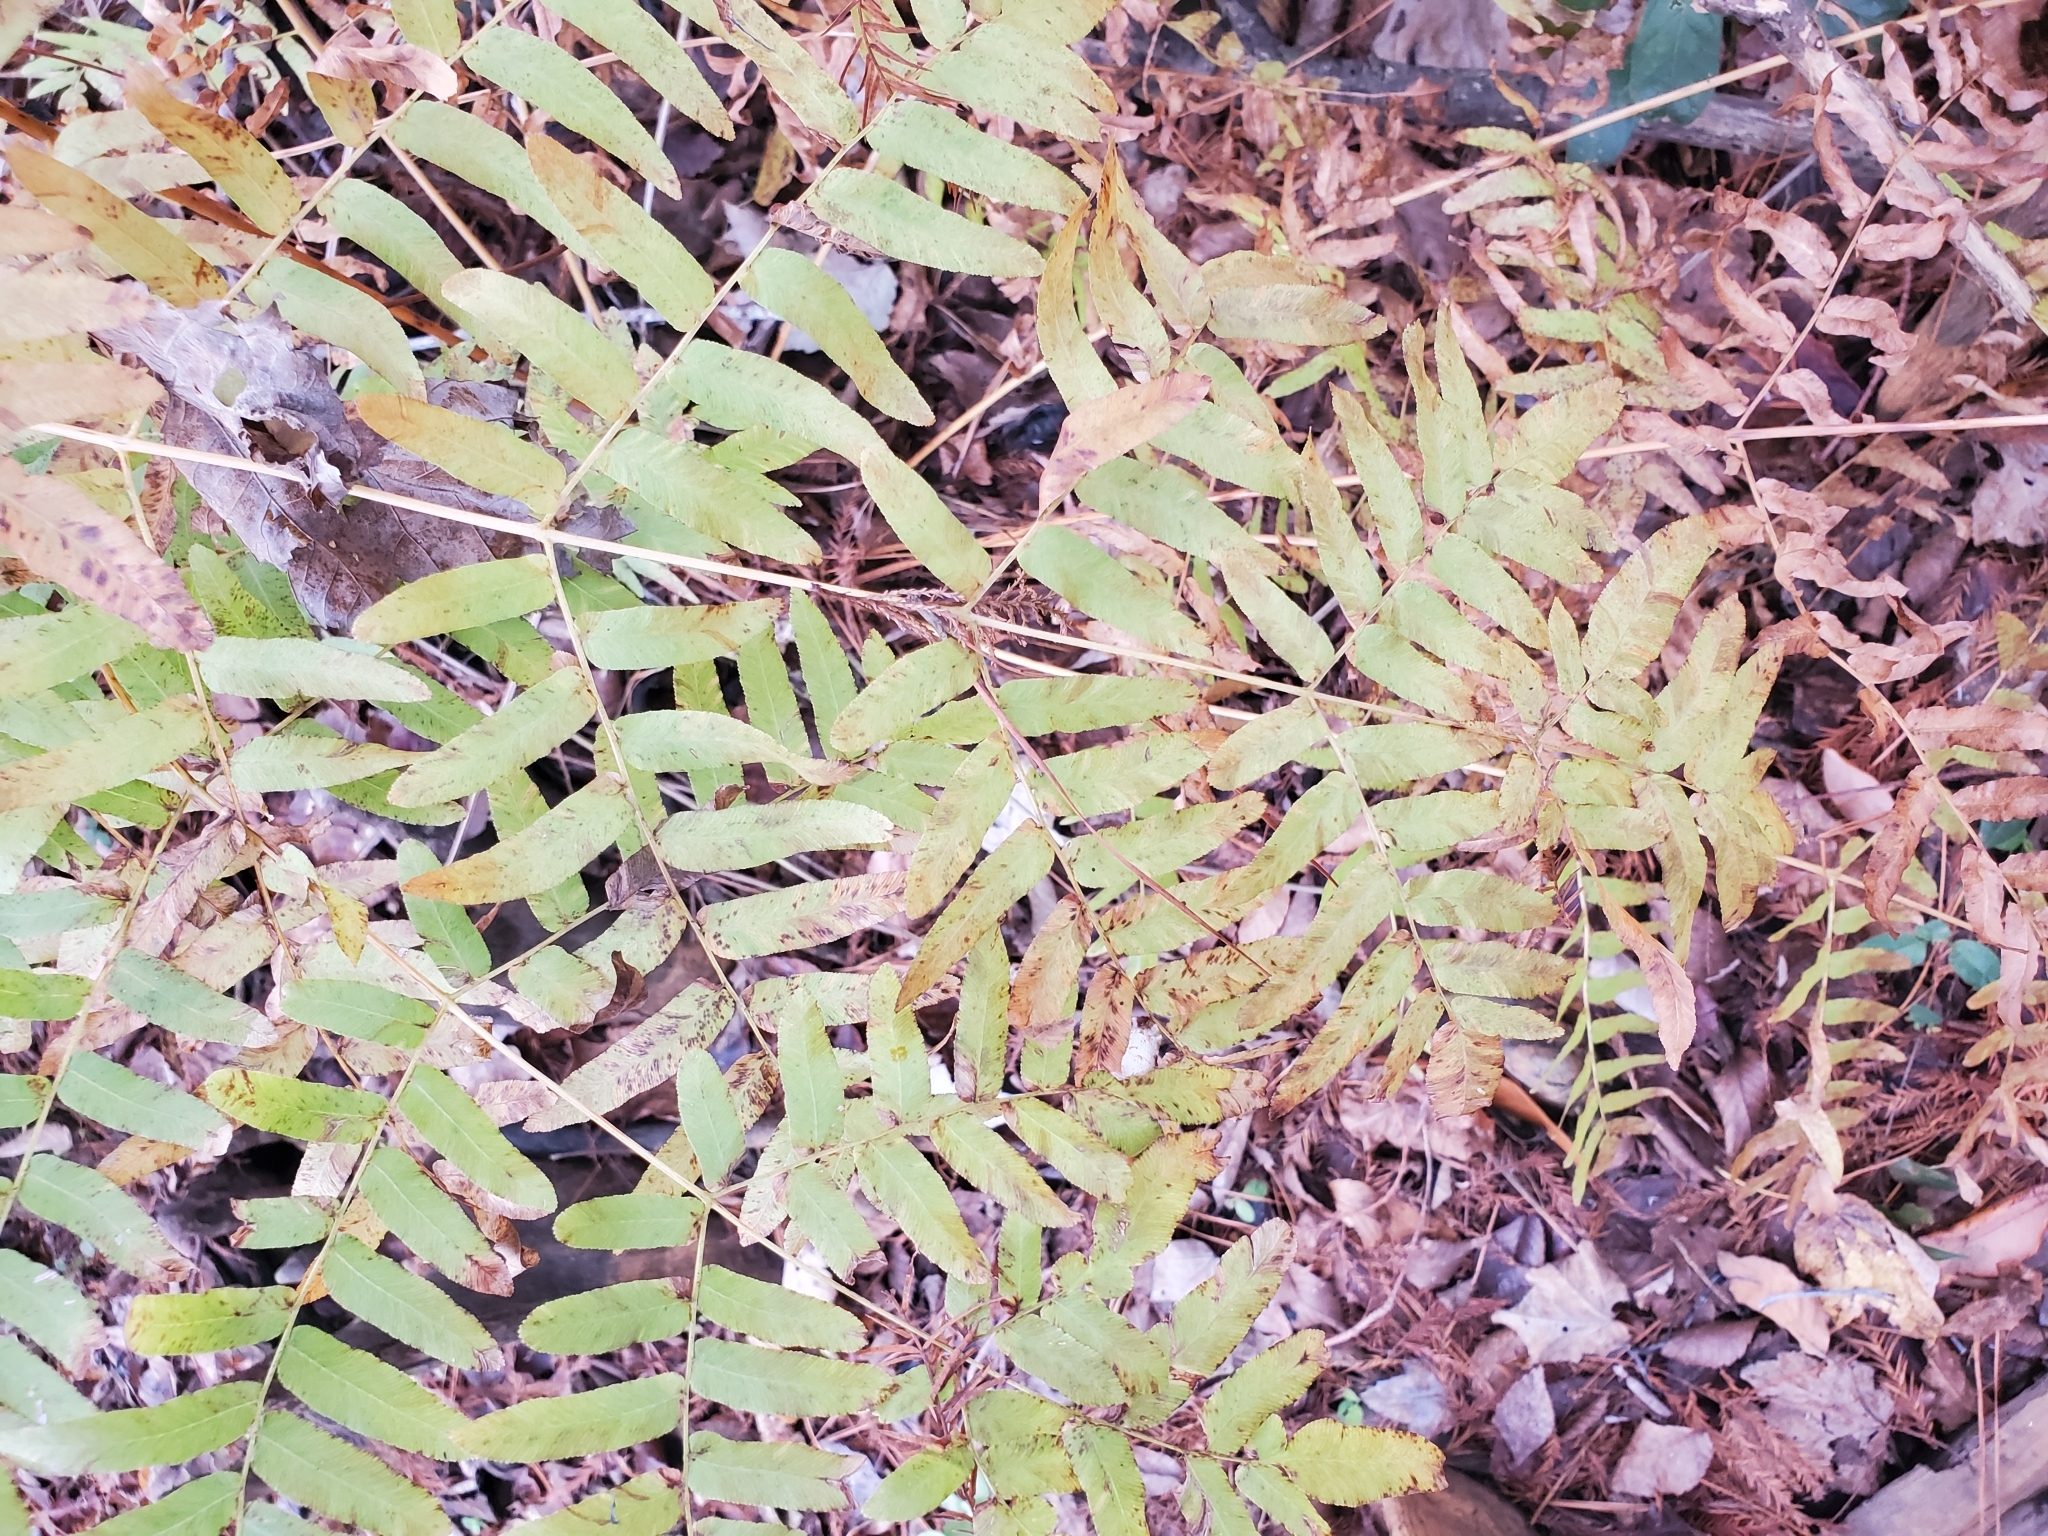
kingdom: Plantae
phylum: Tracheophyta
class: Polypodiopsida
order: Osmundales
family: Osmundaceae
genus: Osmunda
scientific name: Osmunda spectabilis
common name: American royal fern
